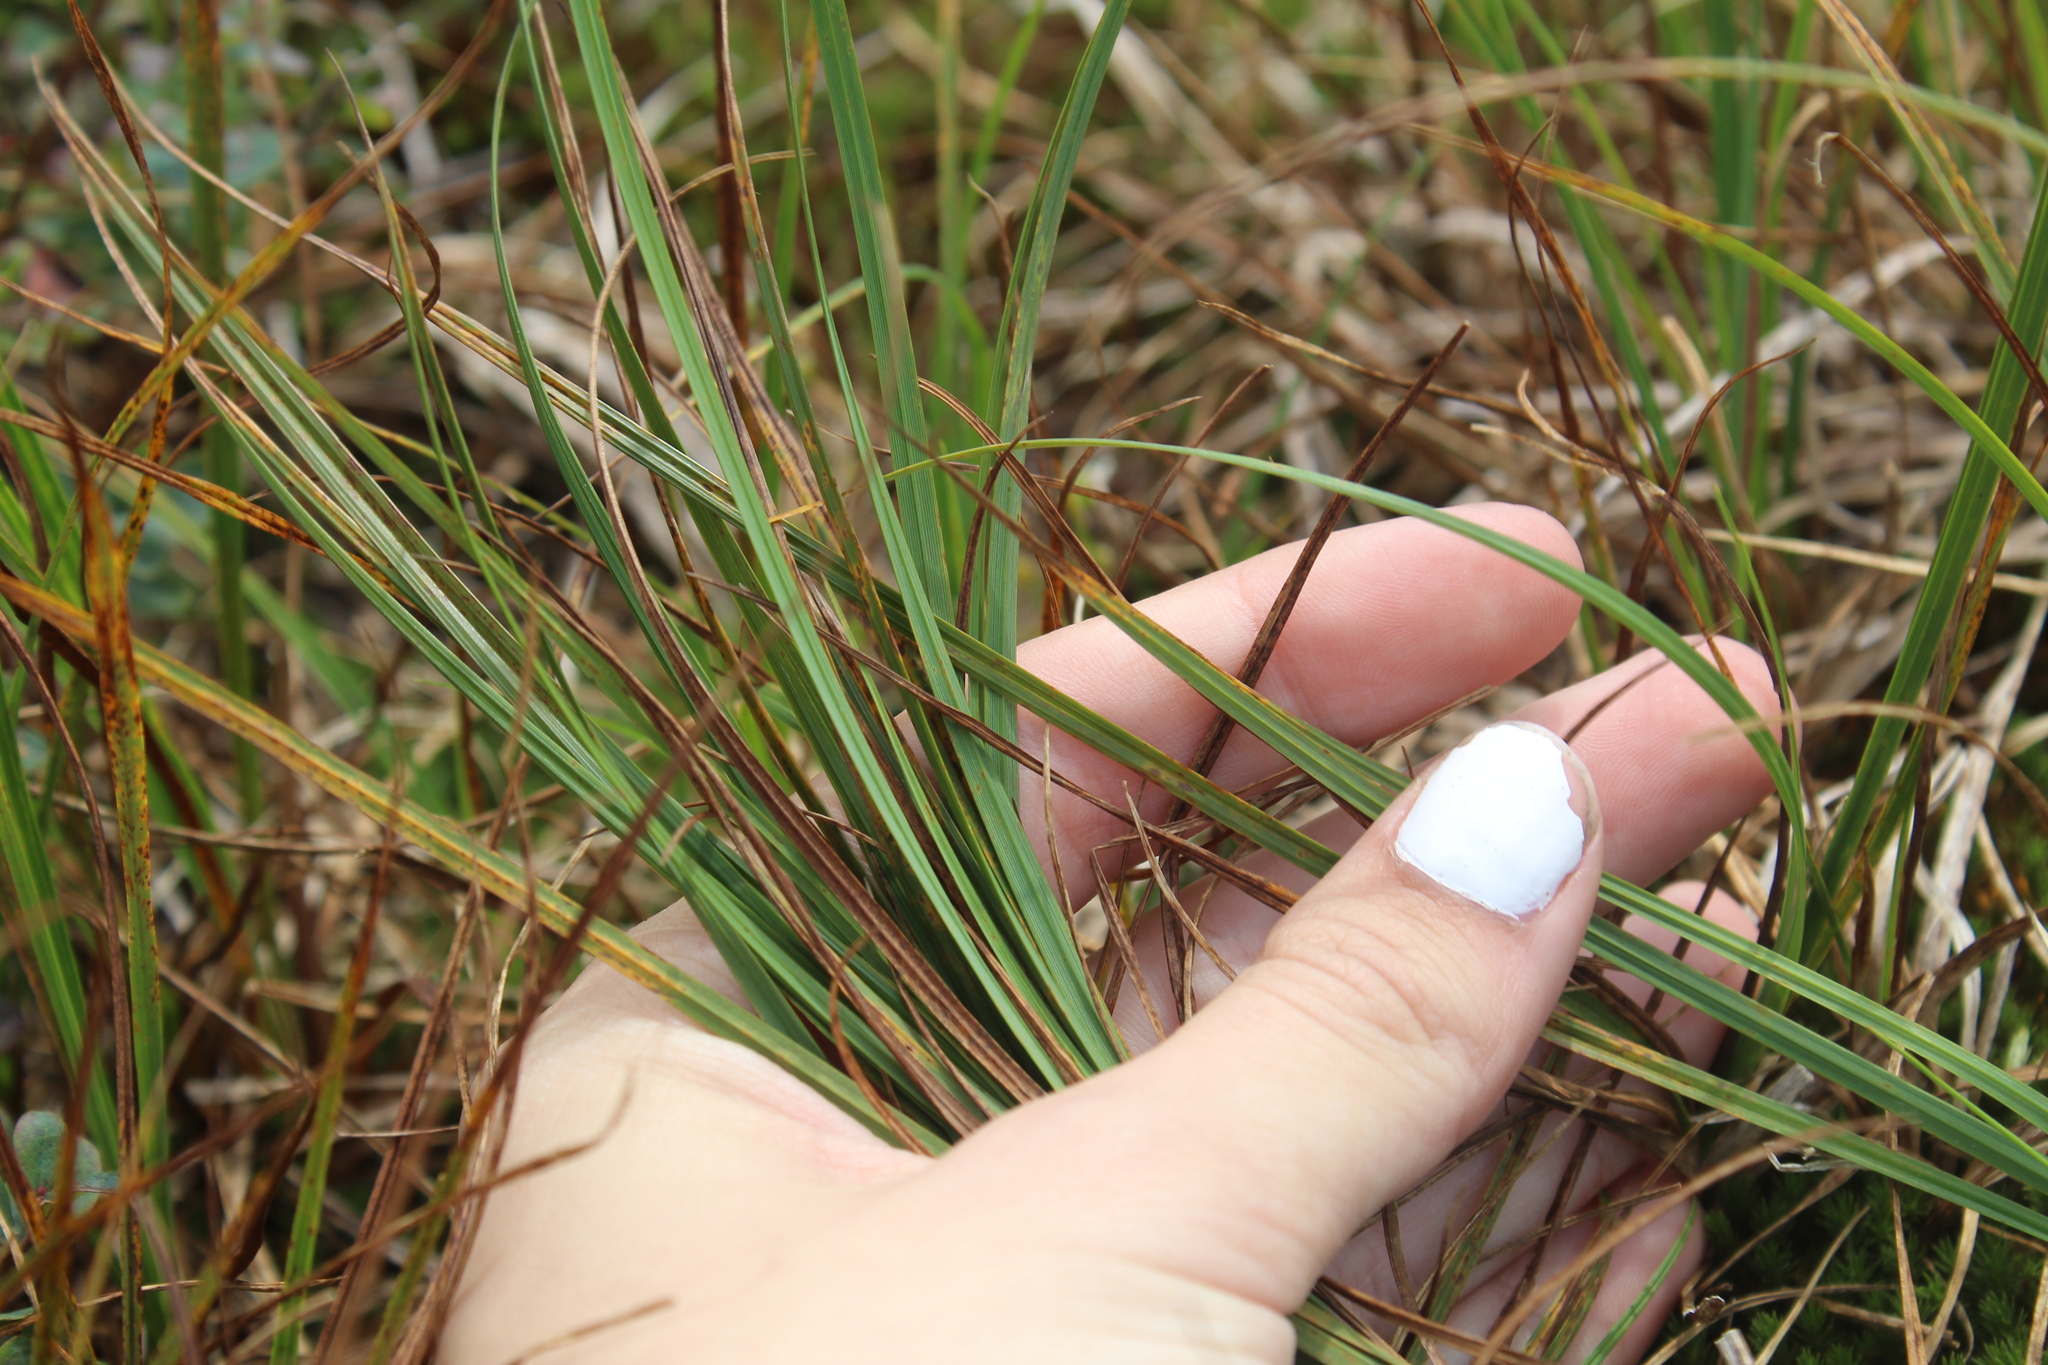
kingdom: Plantae
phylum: Tracheophyta
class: Liliopsida
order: Poales
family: Cyperaceae
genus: Carex
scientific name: Carex bigelowii
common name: Stiff sedge
